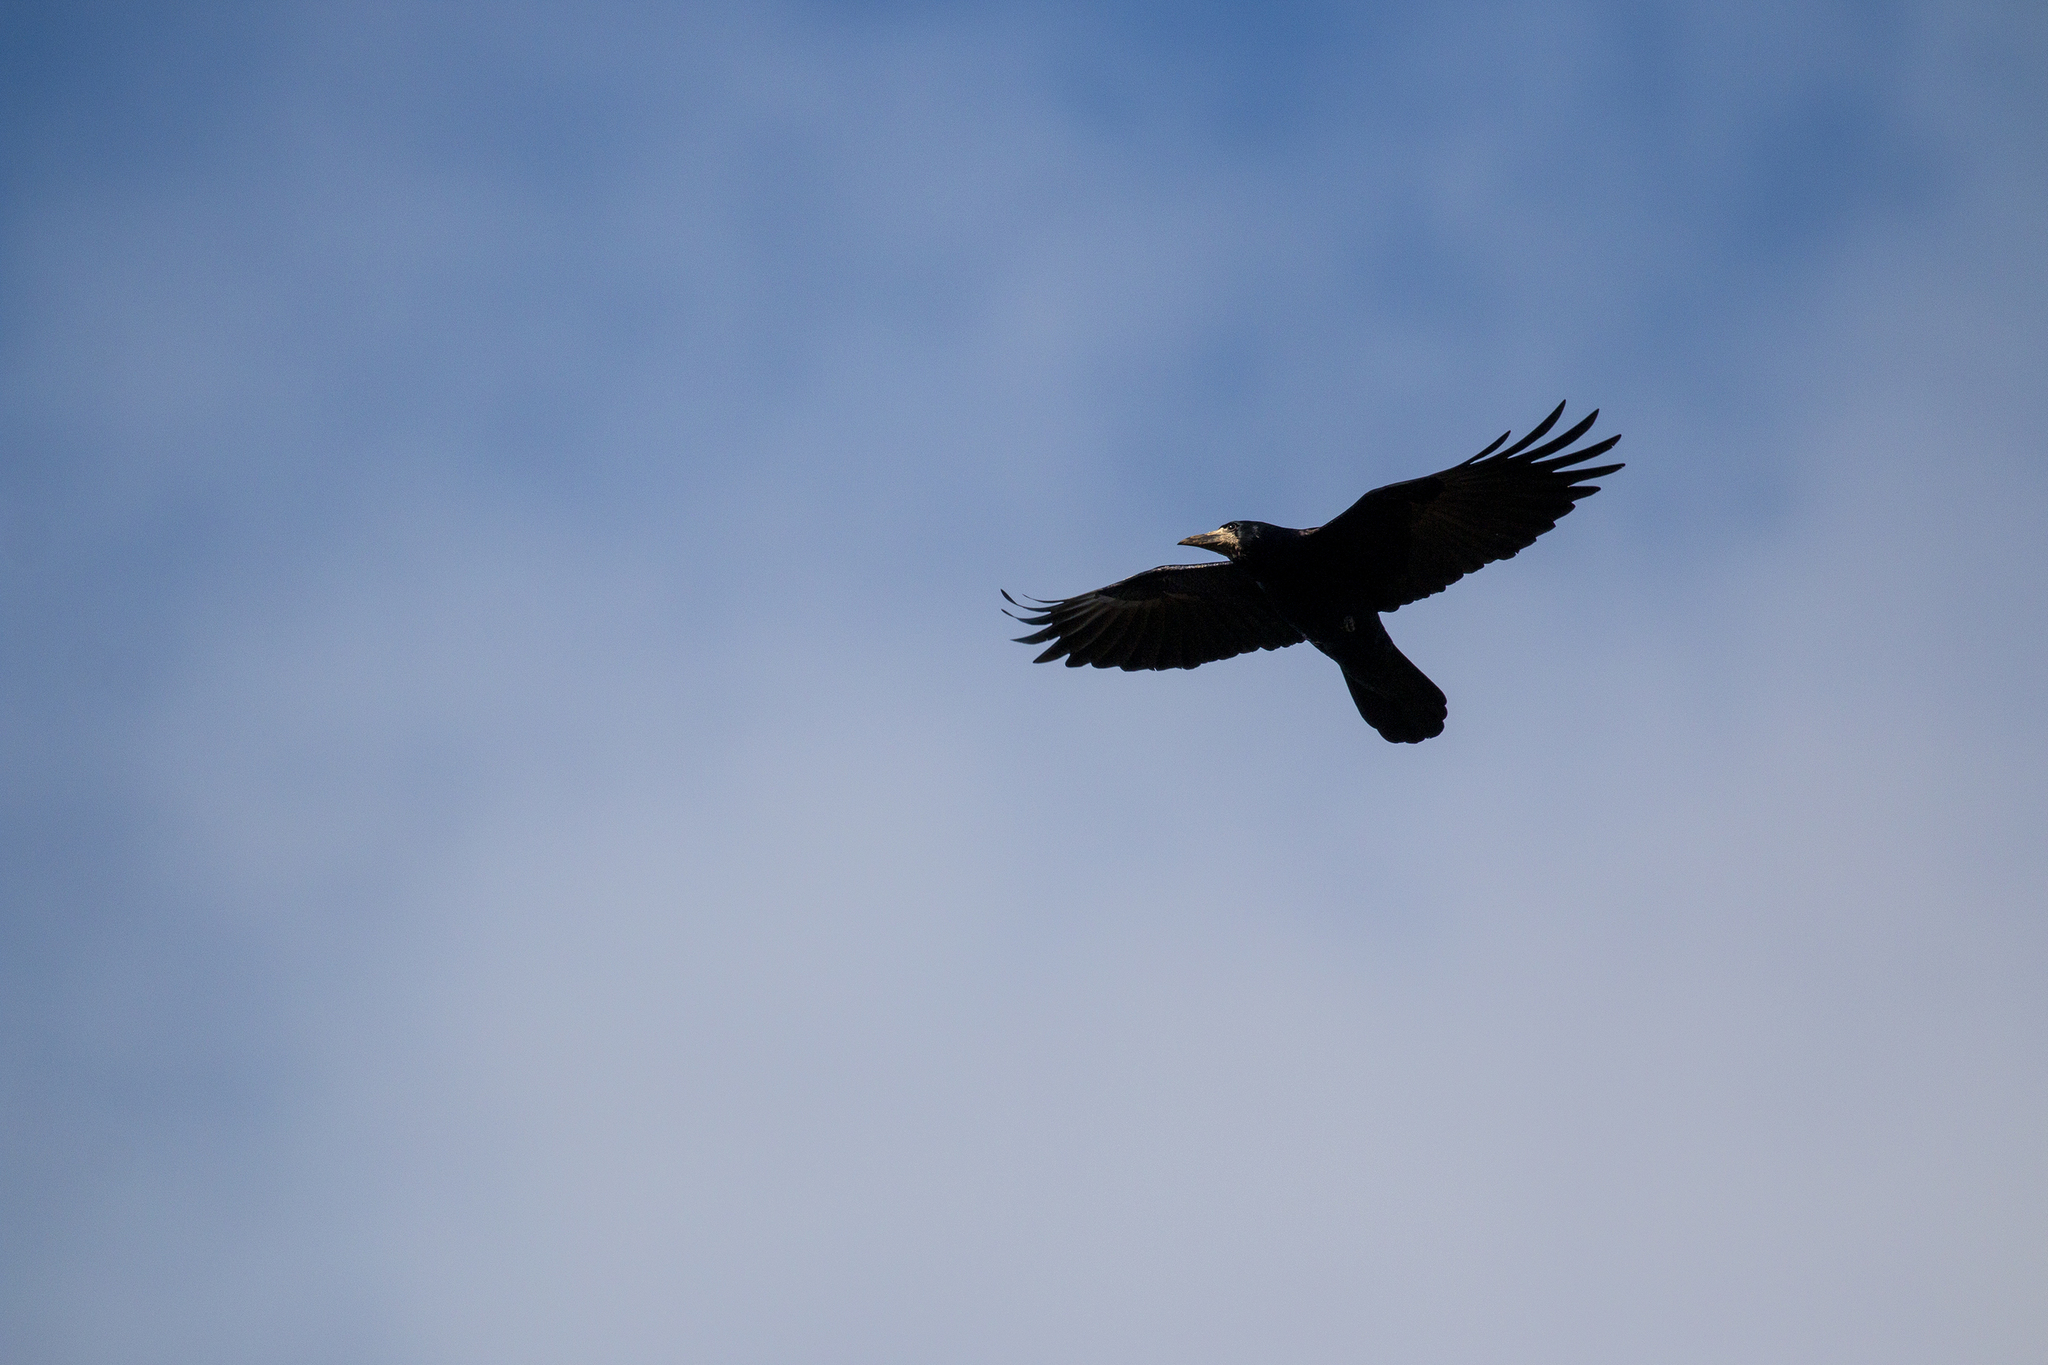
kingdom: Animalia
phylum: Chordata
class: Aves
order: Passeriformes
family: Corvidae
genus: Corvus
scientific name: Corvus frugilegus
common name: Rook
